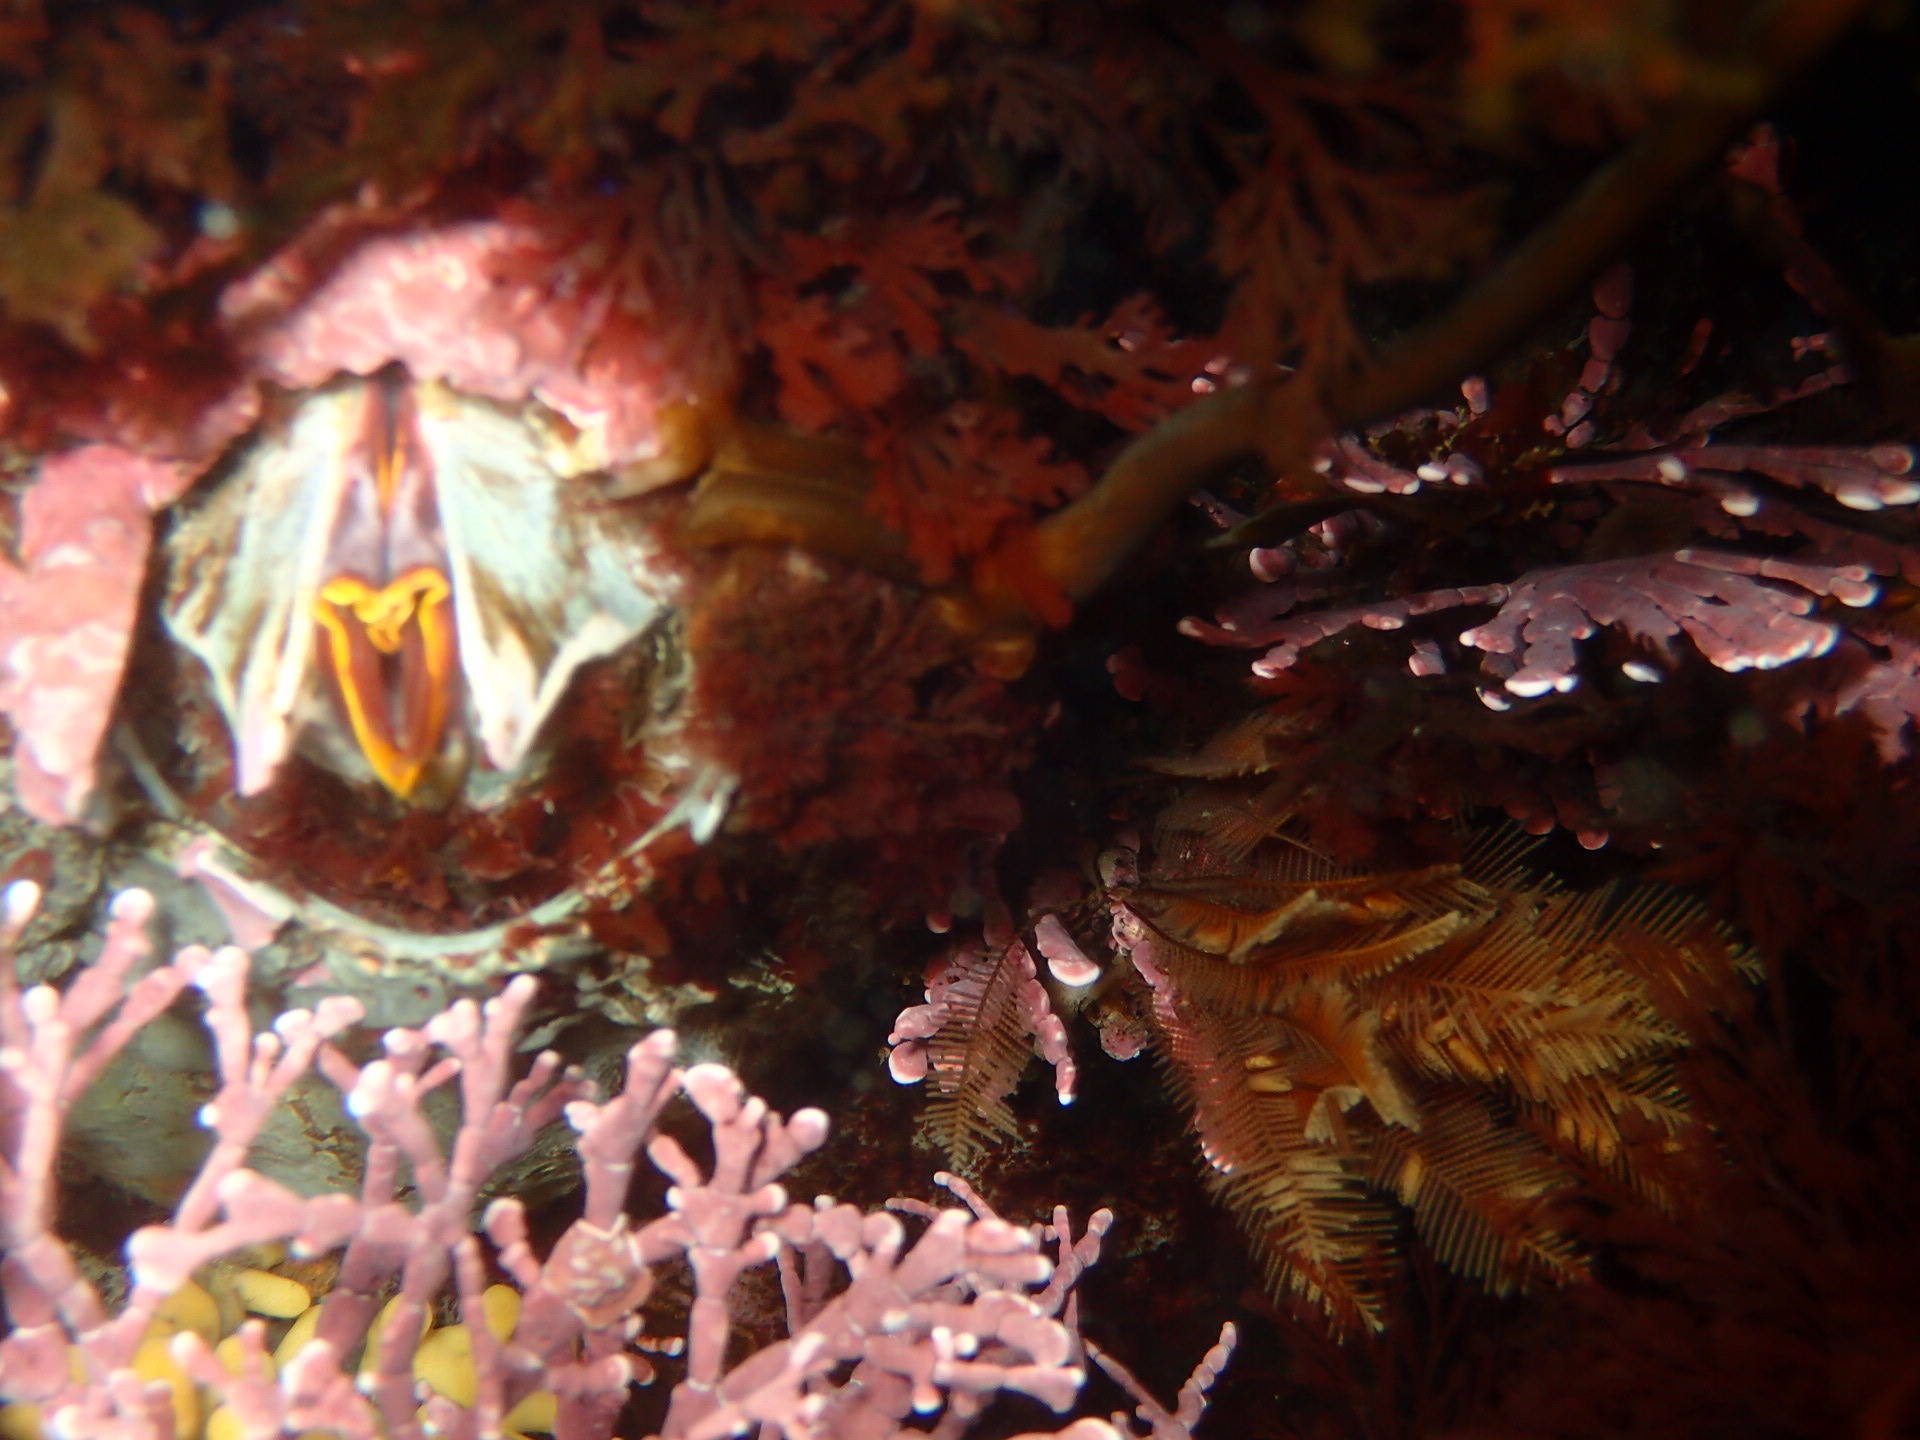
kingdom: Animalia
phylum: Arthropoda
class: Maxillopoda
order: Sessilia
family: Balanidae
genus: Balanus
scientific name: Balanus nubilus
